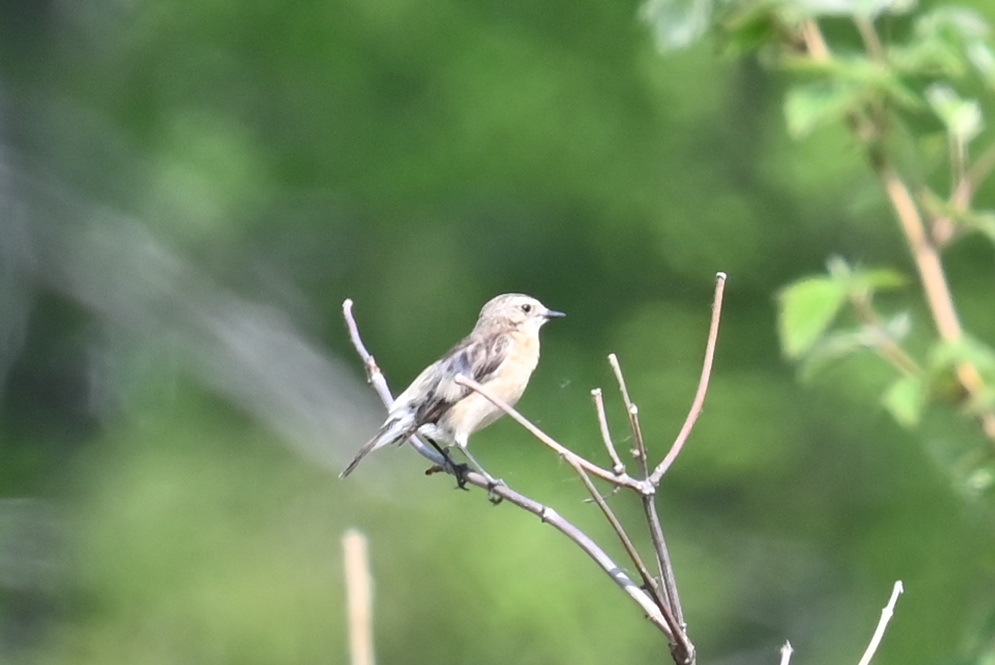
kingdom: Animalia
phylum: Chordata
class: Aves
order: Passeriformes
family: Muscicapidae
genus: Saxicola
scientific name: Saxicola maurus
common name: Siberian stonechat
